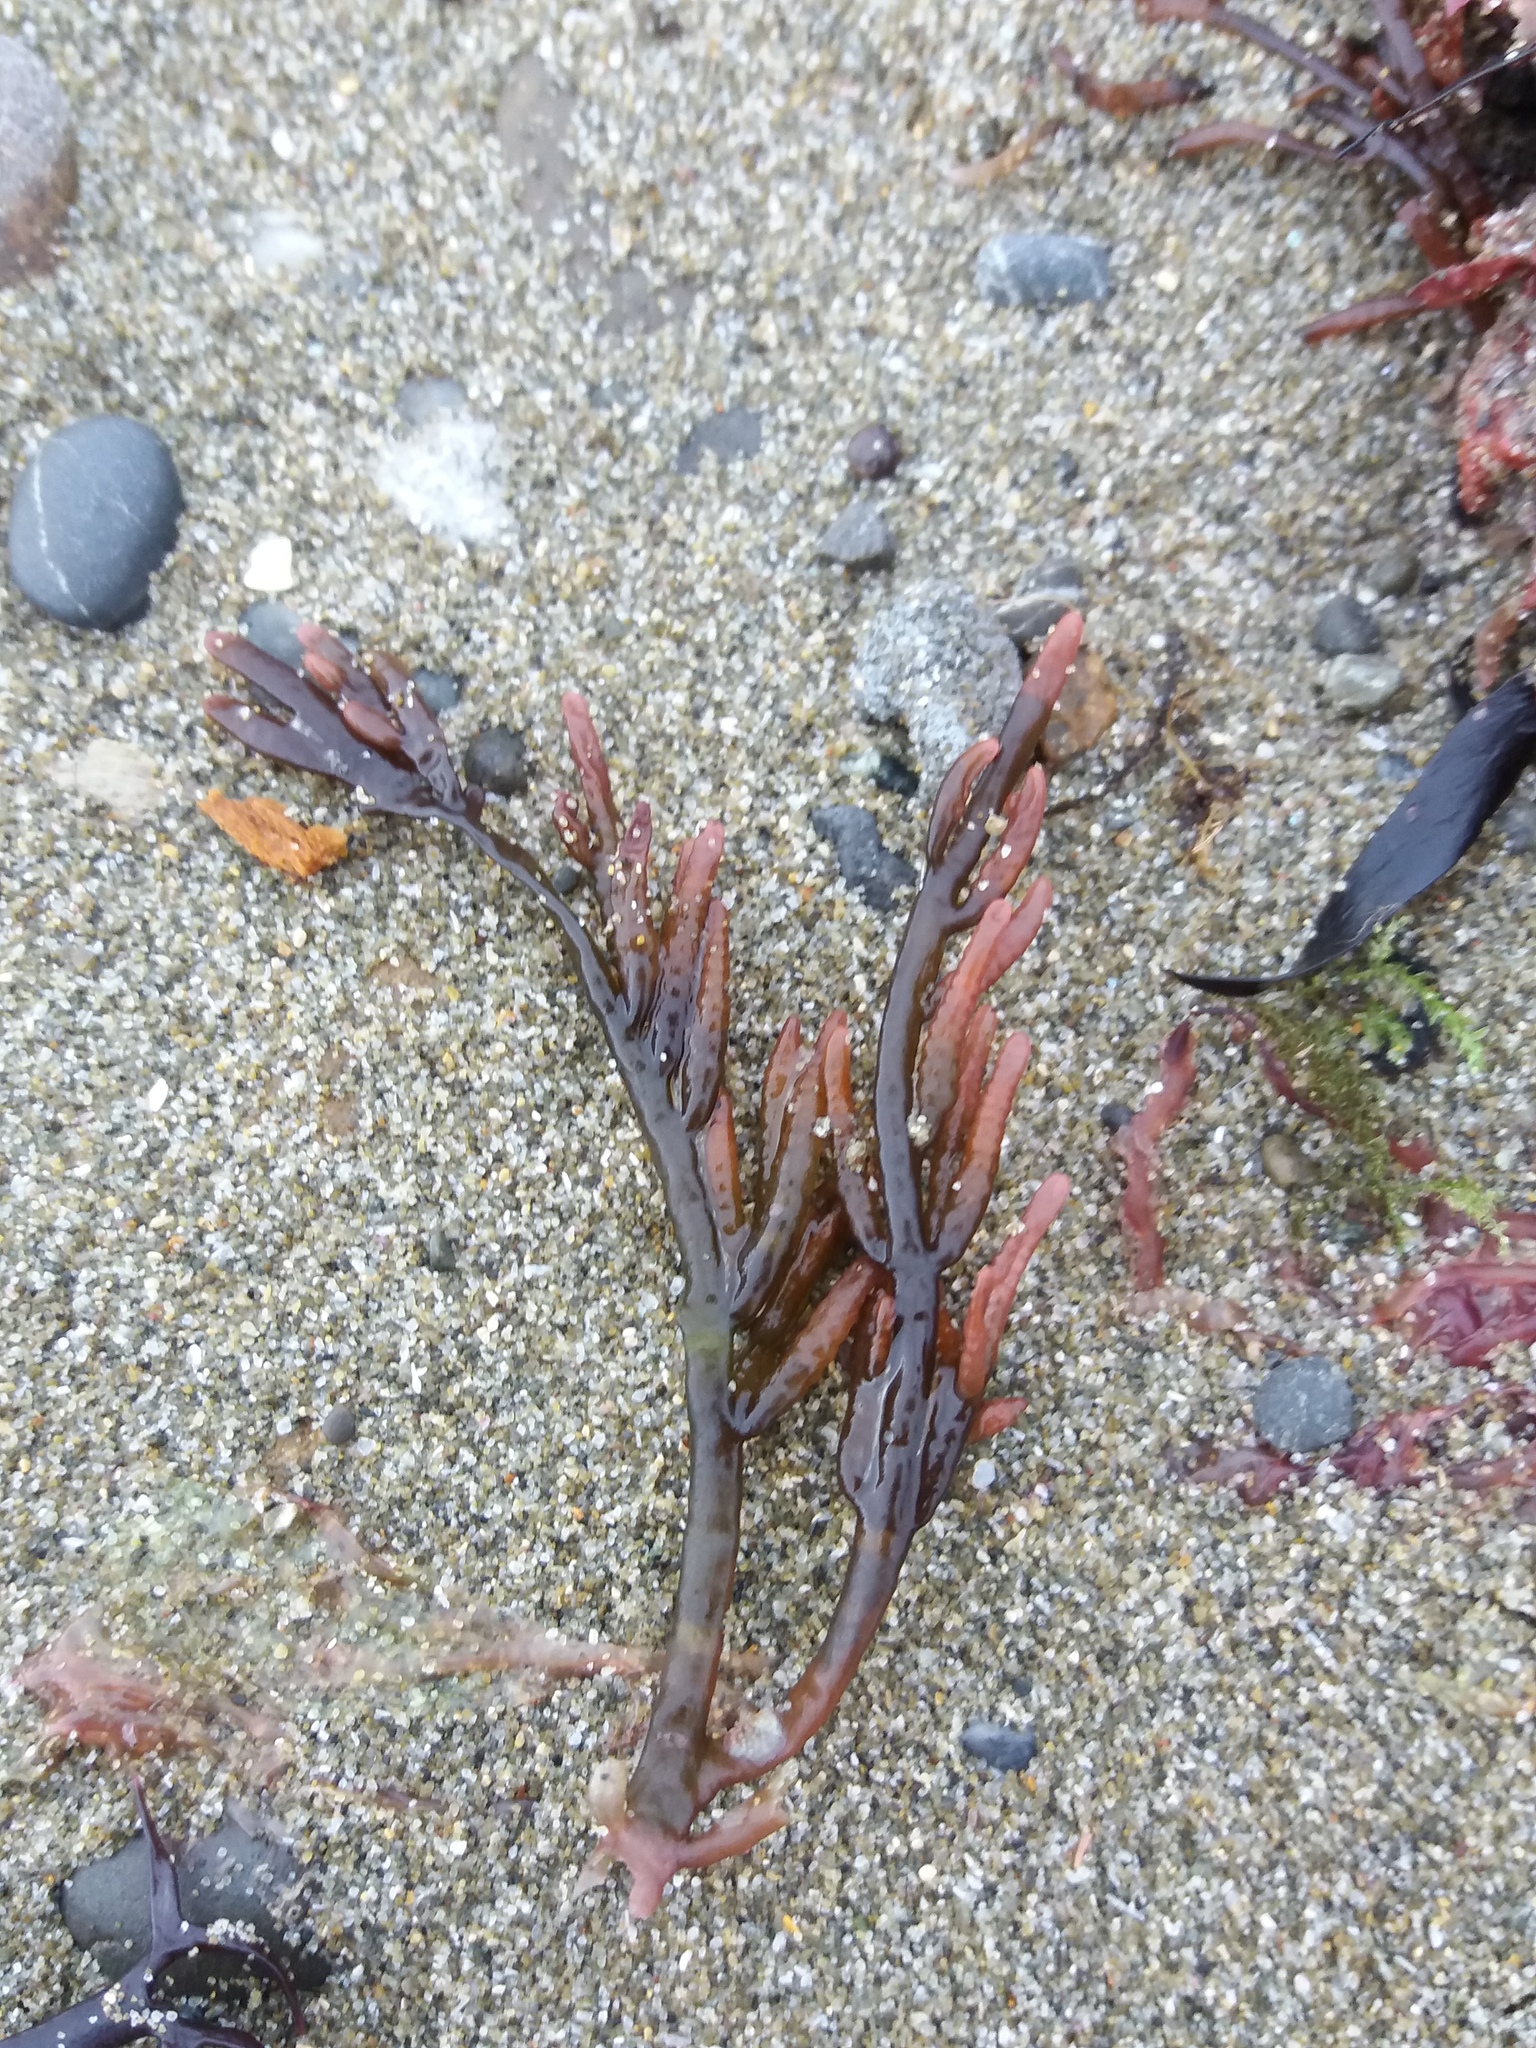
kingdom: Plantae
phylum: Rhodophyta
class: Florideophyceae
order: Rhodymeniales
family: Champiaceae
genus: Champia
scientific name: Champia novae-zelandiae
